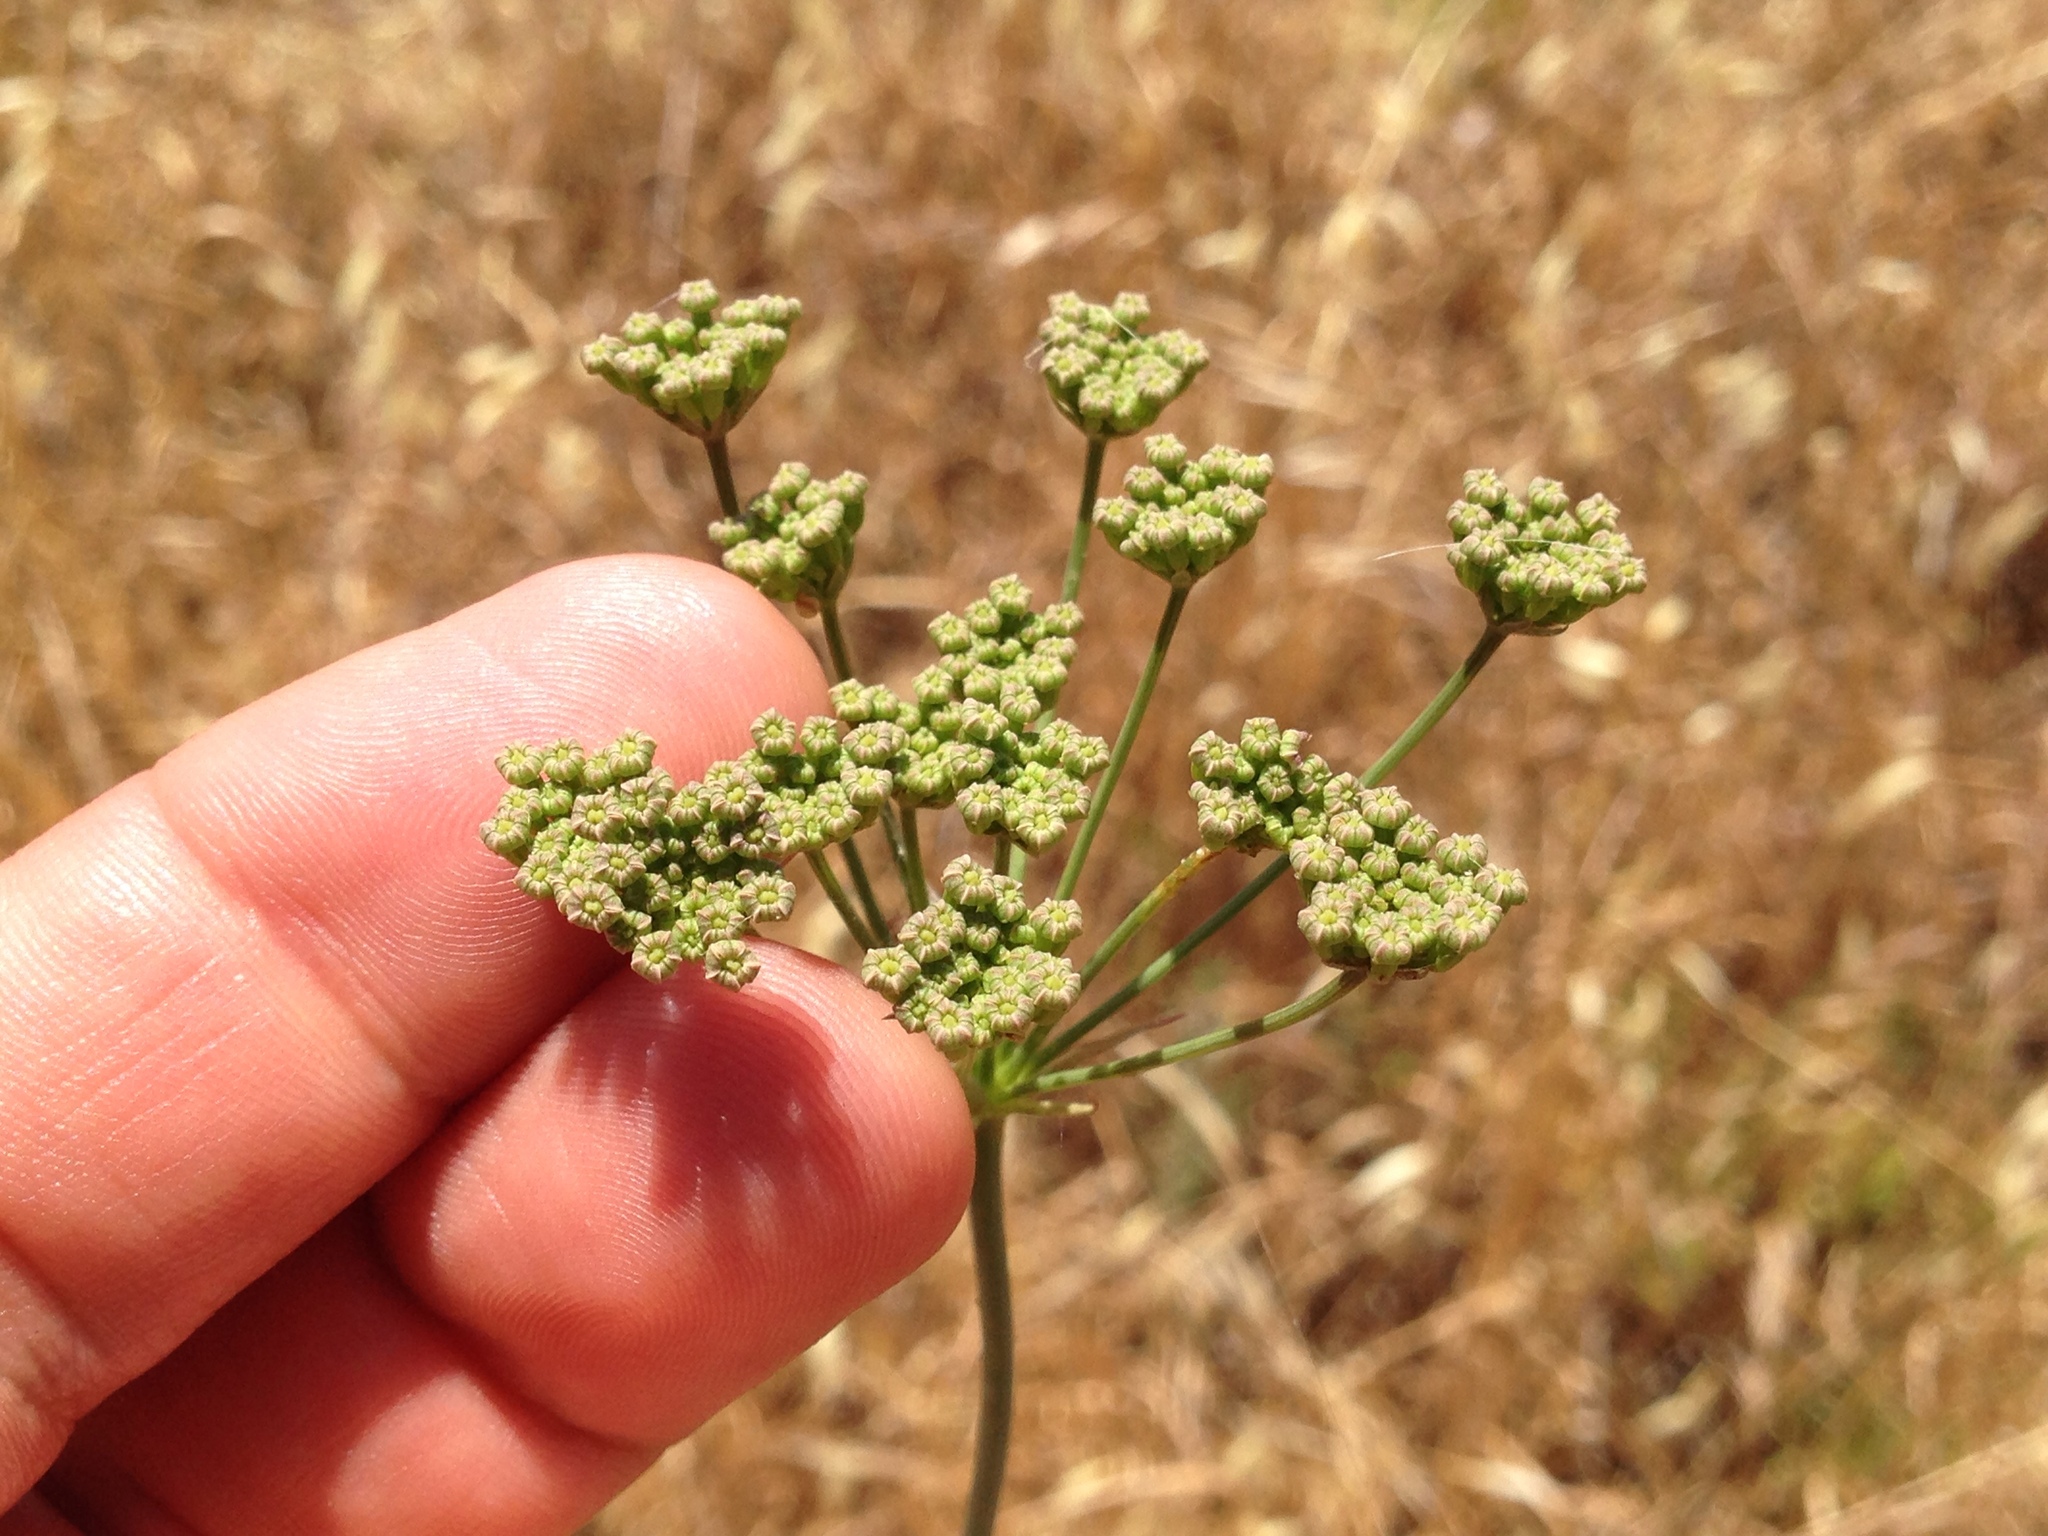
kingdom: Plantae
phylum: Tracheophyta
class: Magnoliopsida
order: Apiales
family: Apiaceae
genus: Perideridia
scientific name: Perideridia kelloggii
